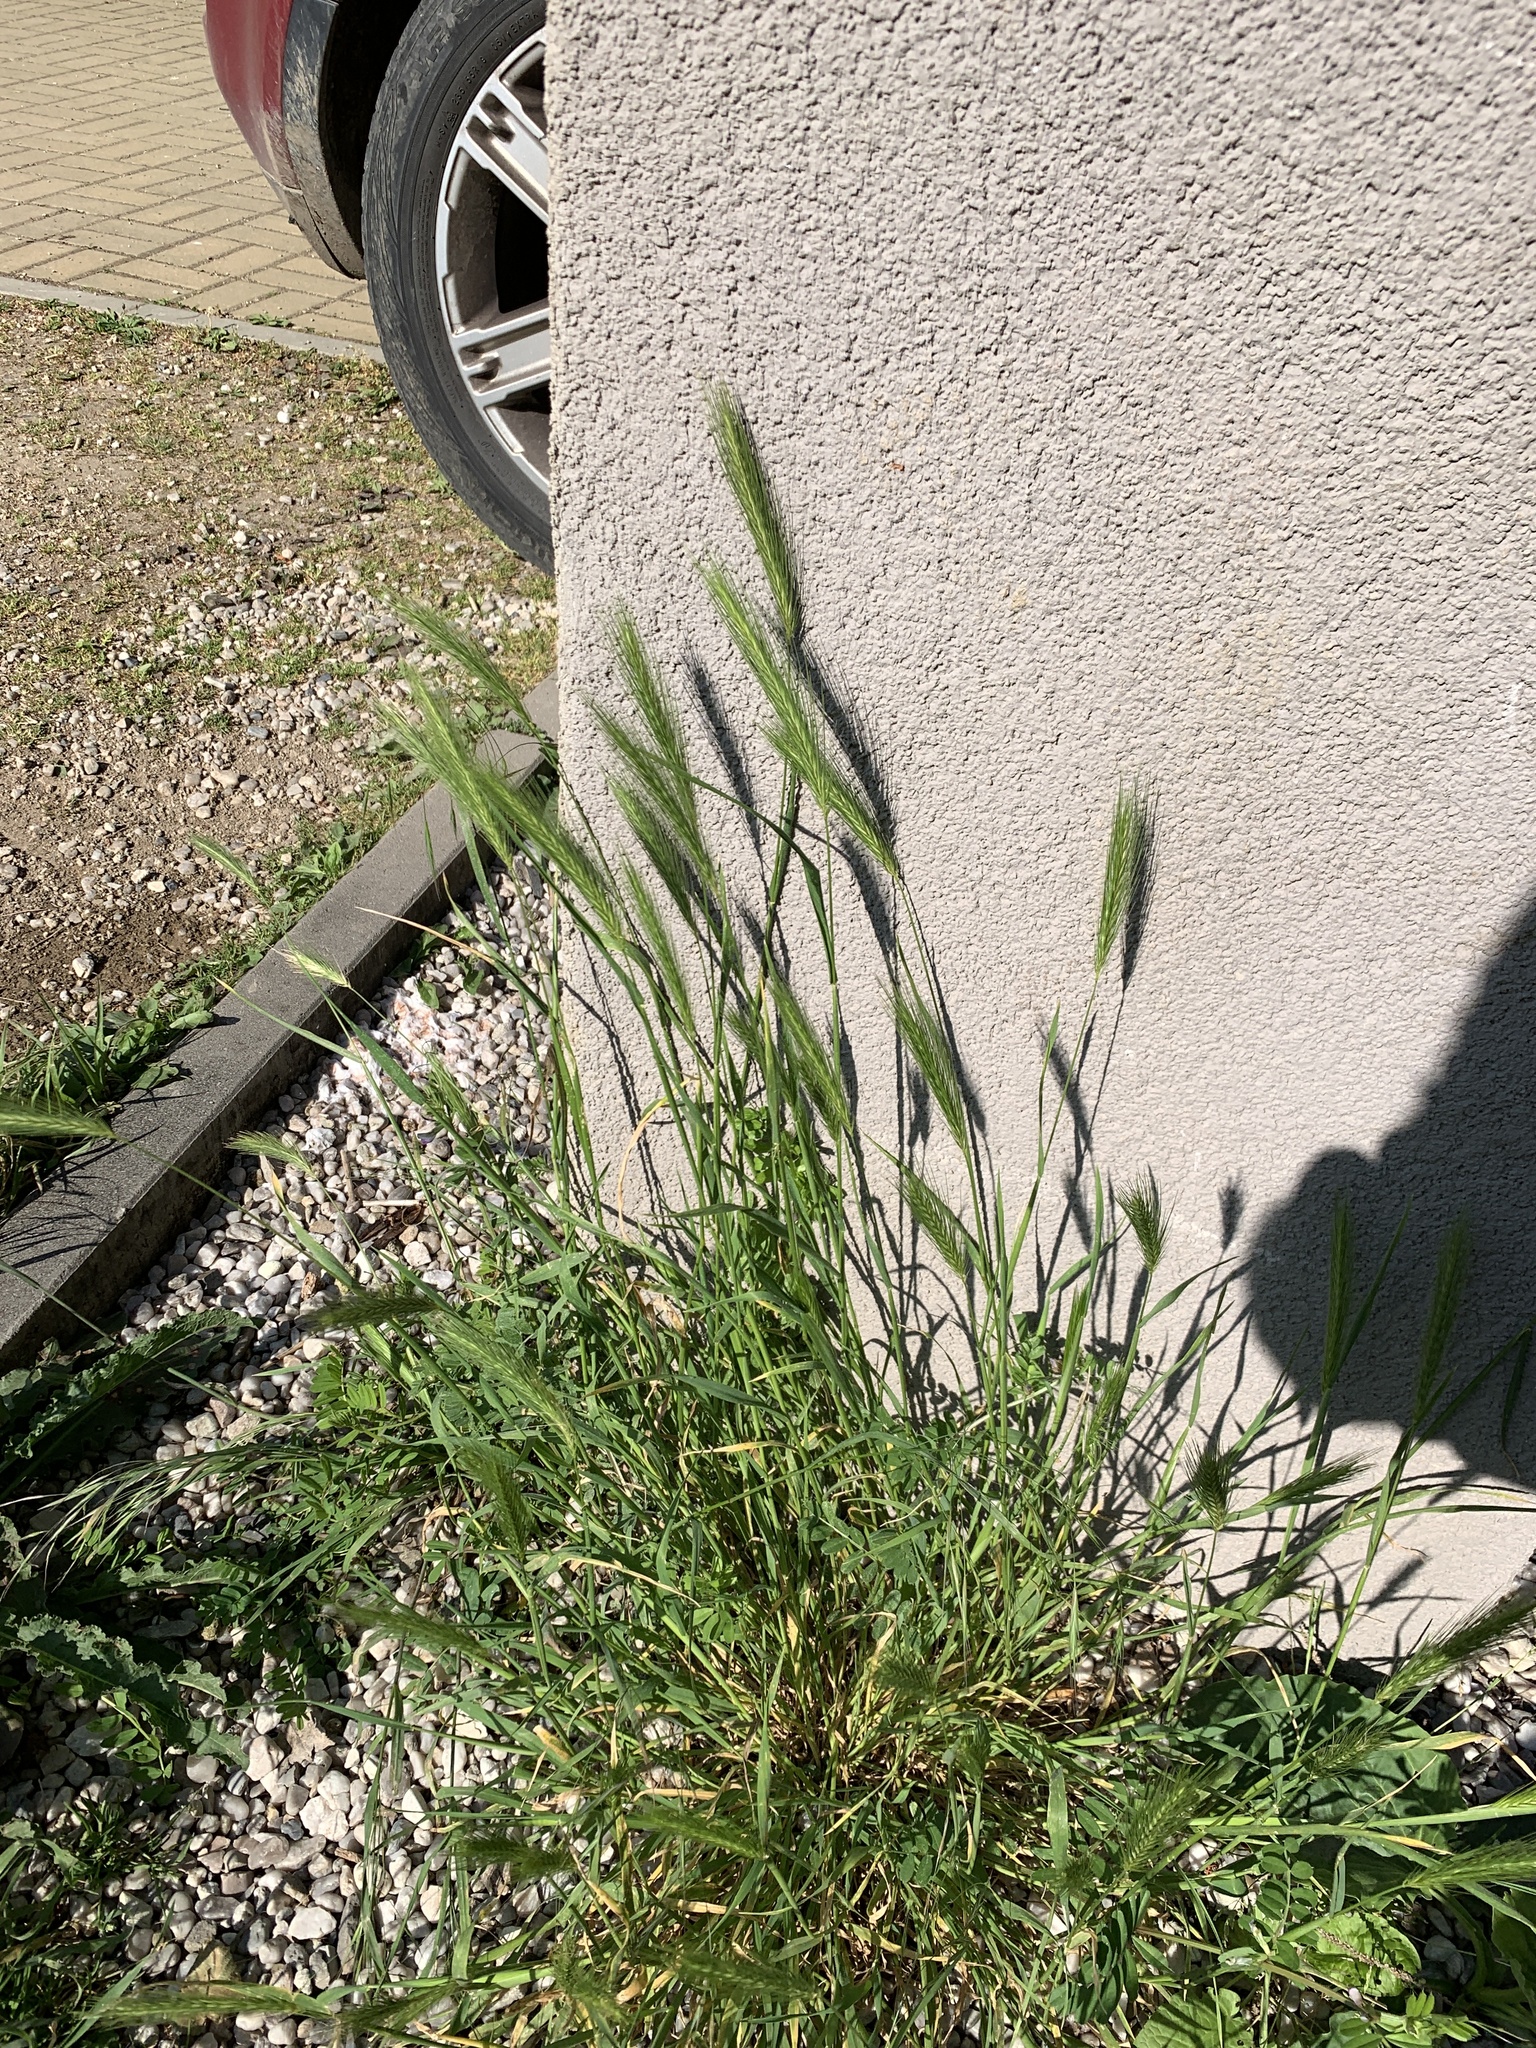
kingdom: Plantae
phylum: Tracheophyta
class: Liliopsida
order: Poales
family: Poaceae
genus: Hordeum
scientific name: Hordeum murinum
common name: Wall barley
